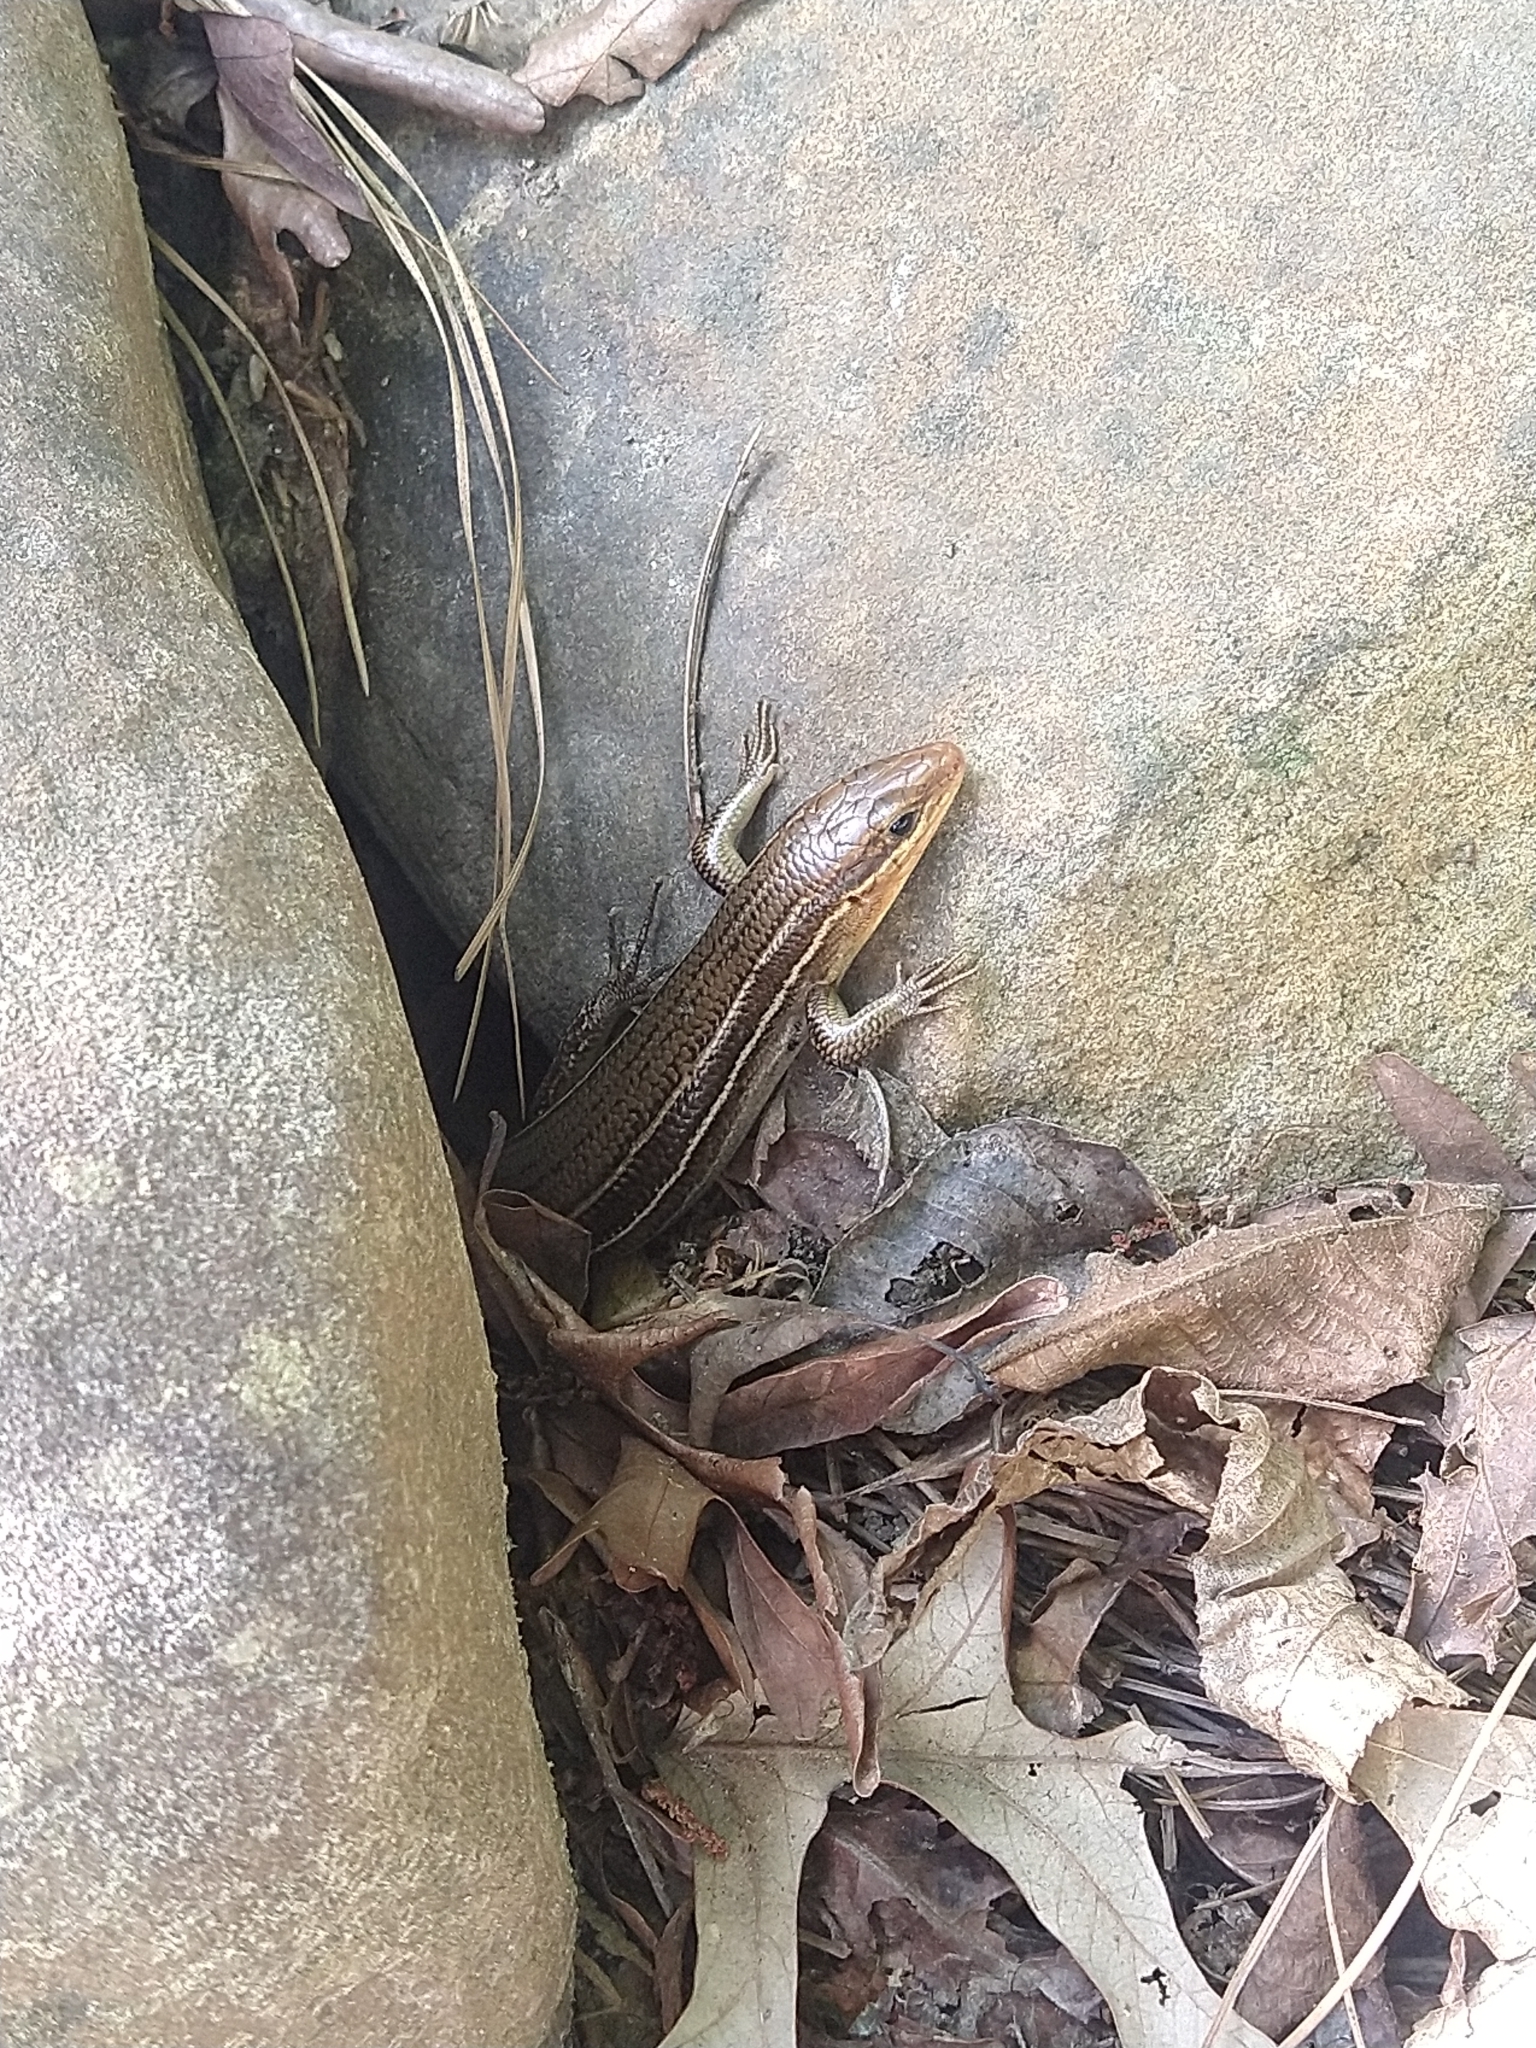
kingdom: Animalia
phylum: Chordata
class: Squamata
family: Scincidae
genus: Plestiodon
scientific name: Plestiodon laticeps
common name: Broadhead skink
